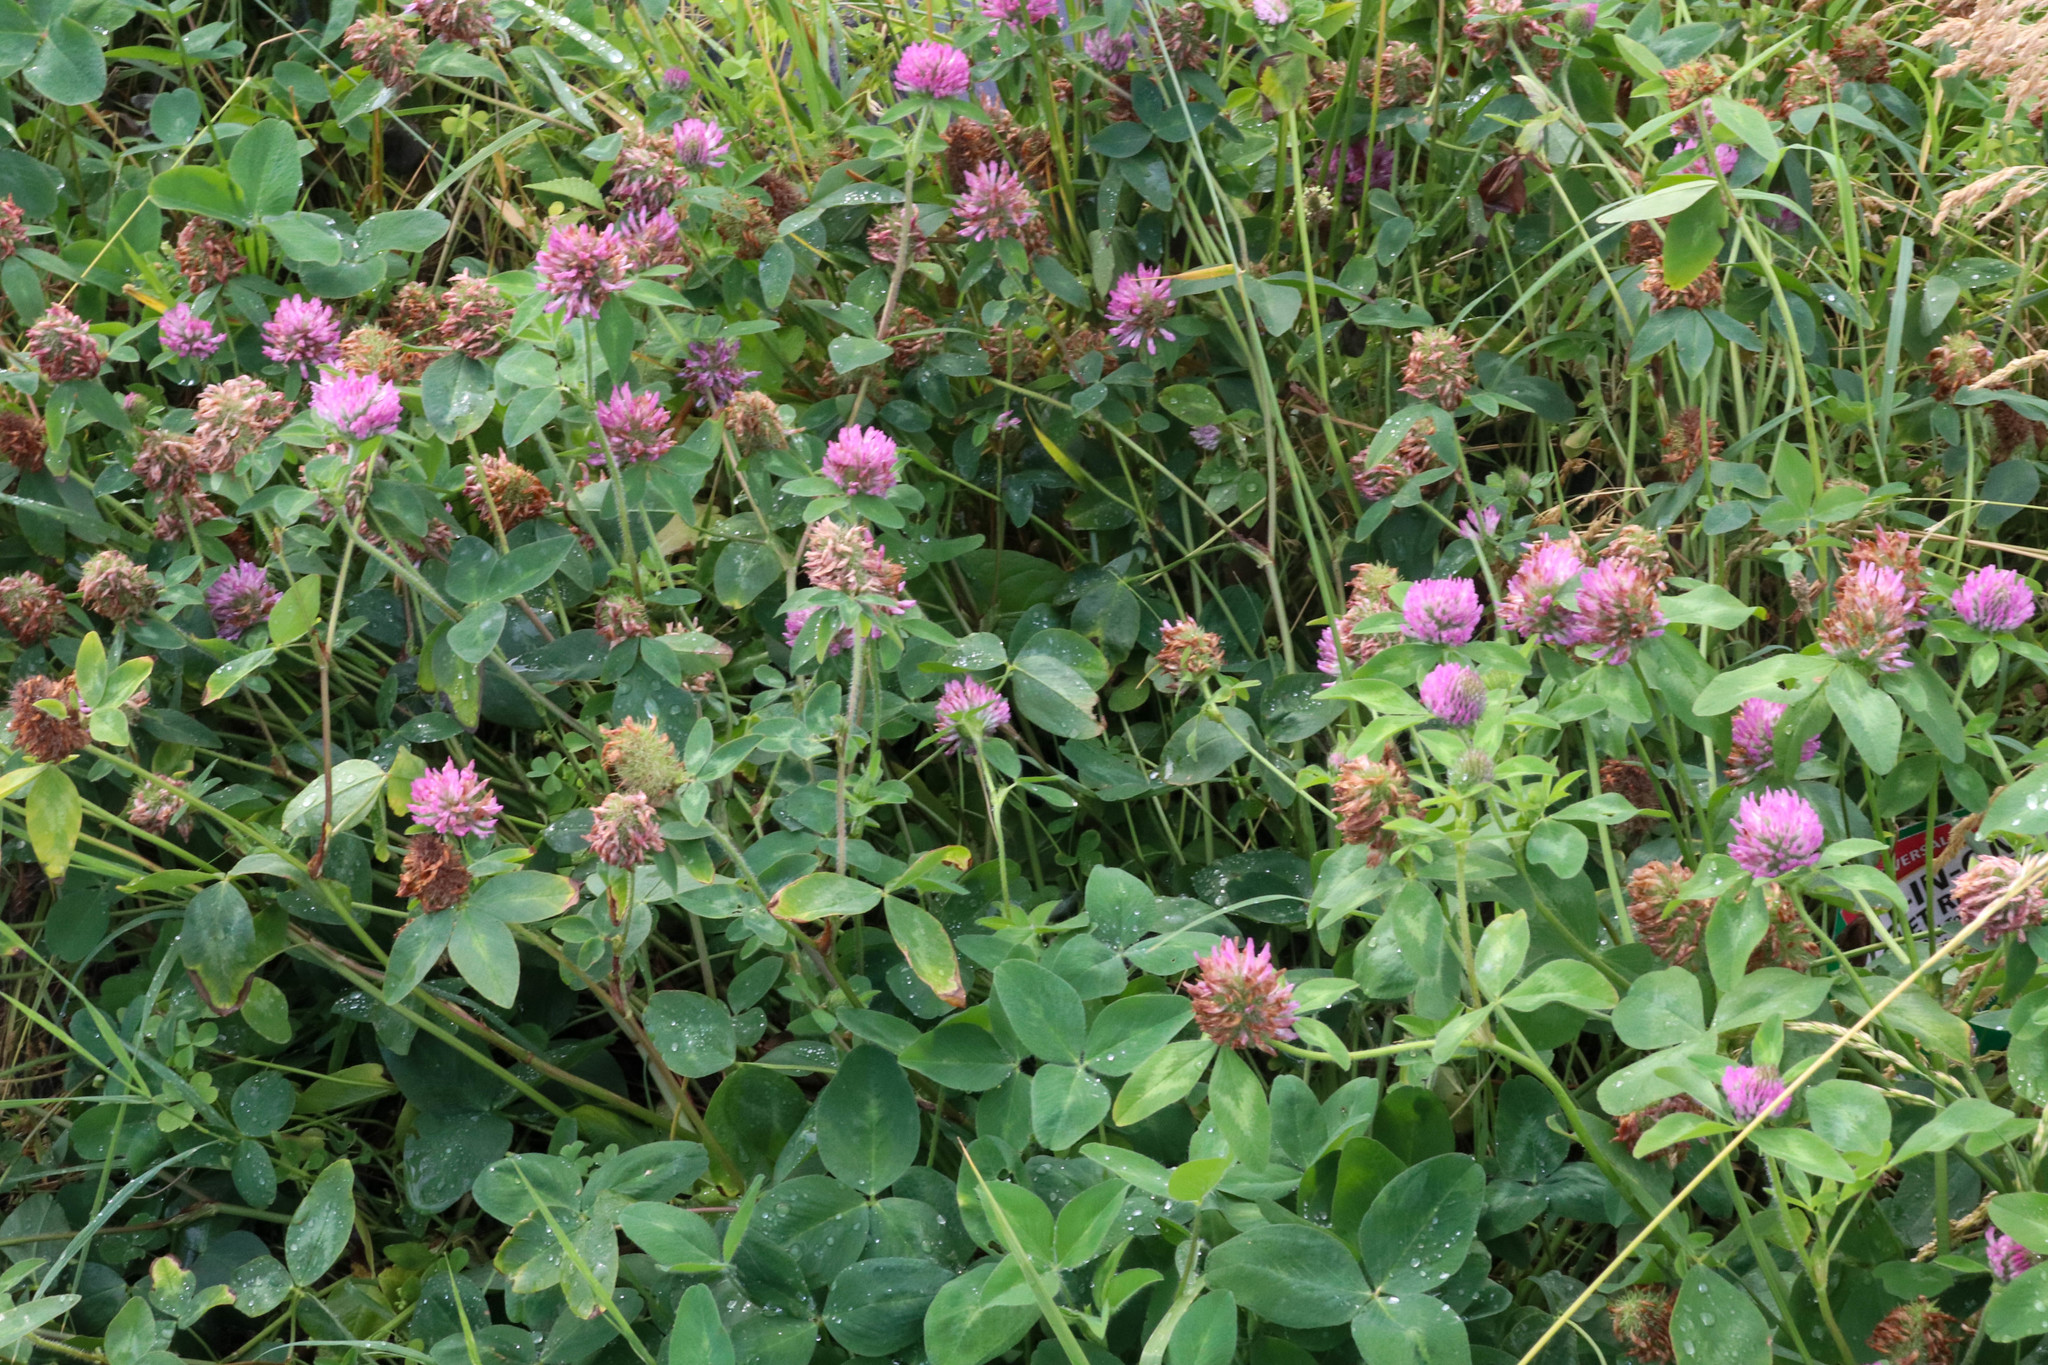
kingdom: Plantae
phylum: Tracheophyta
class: Magnoliopsida
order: Fabales
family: Fabaceae
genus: Trifolium
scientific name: Trifolium pratense
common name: Red clover
